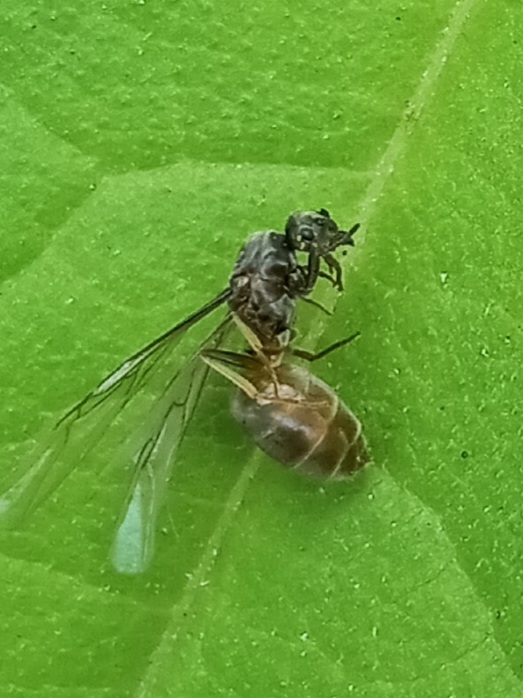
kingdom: Animalia
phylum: Arthropoda
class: Insecta
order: Hymenoptera
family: Formicidae
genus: Lasius
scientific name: Lasius neoniger
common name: Turfgrass ant
